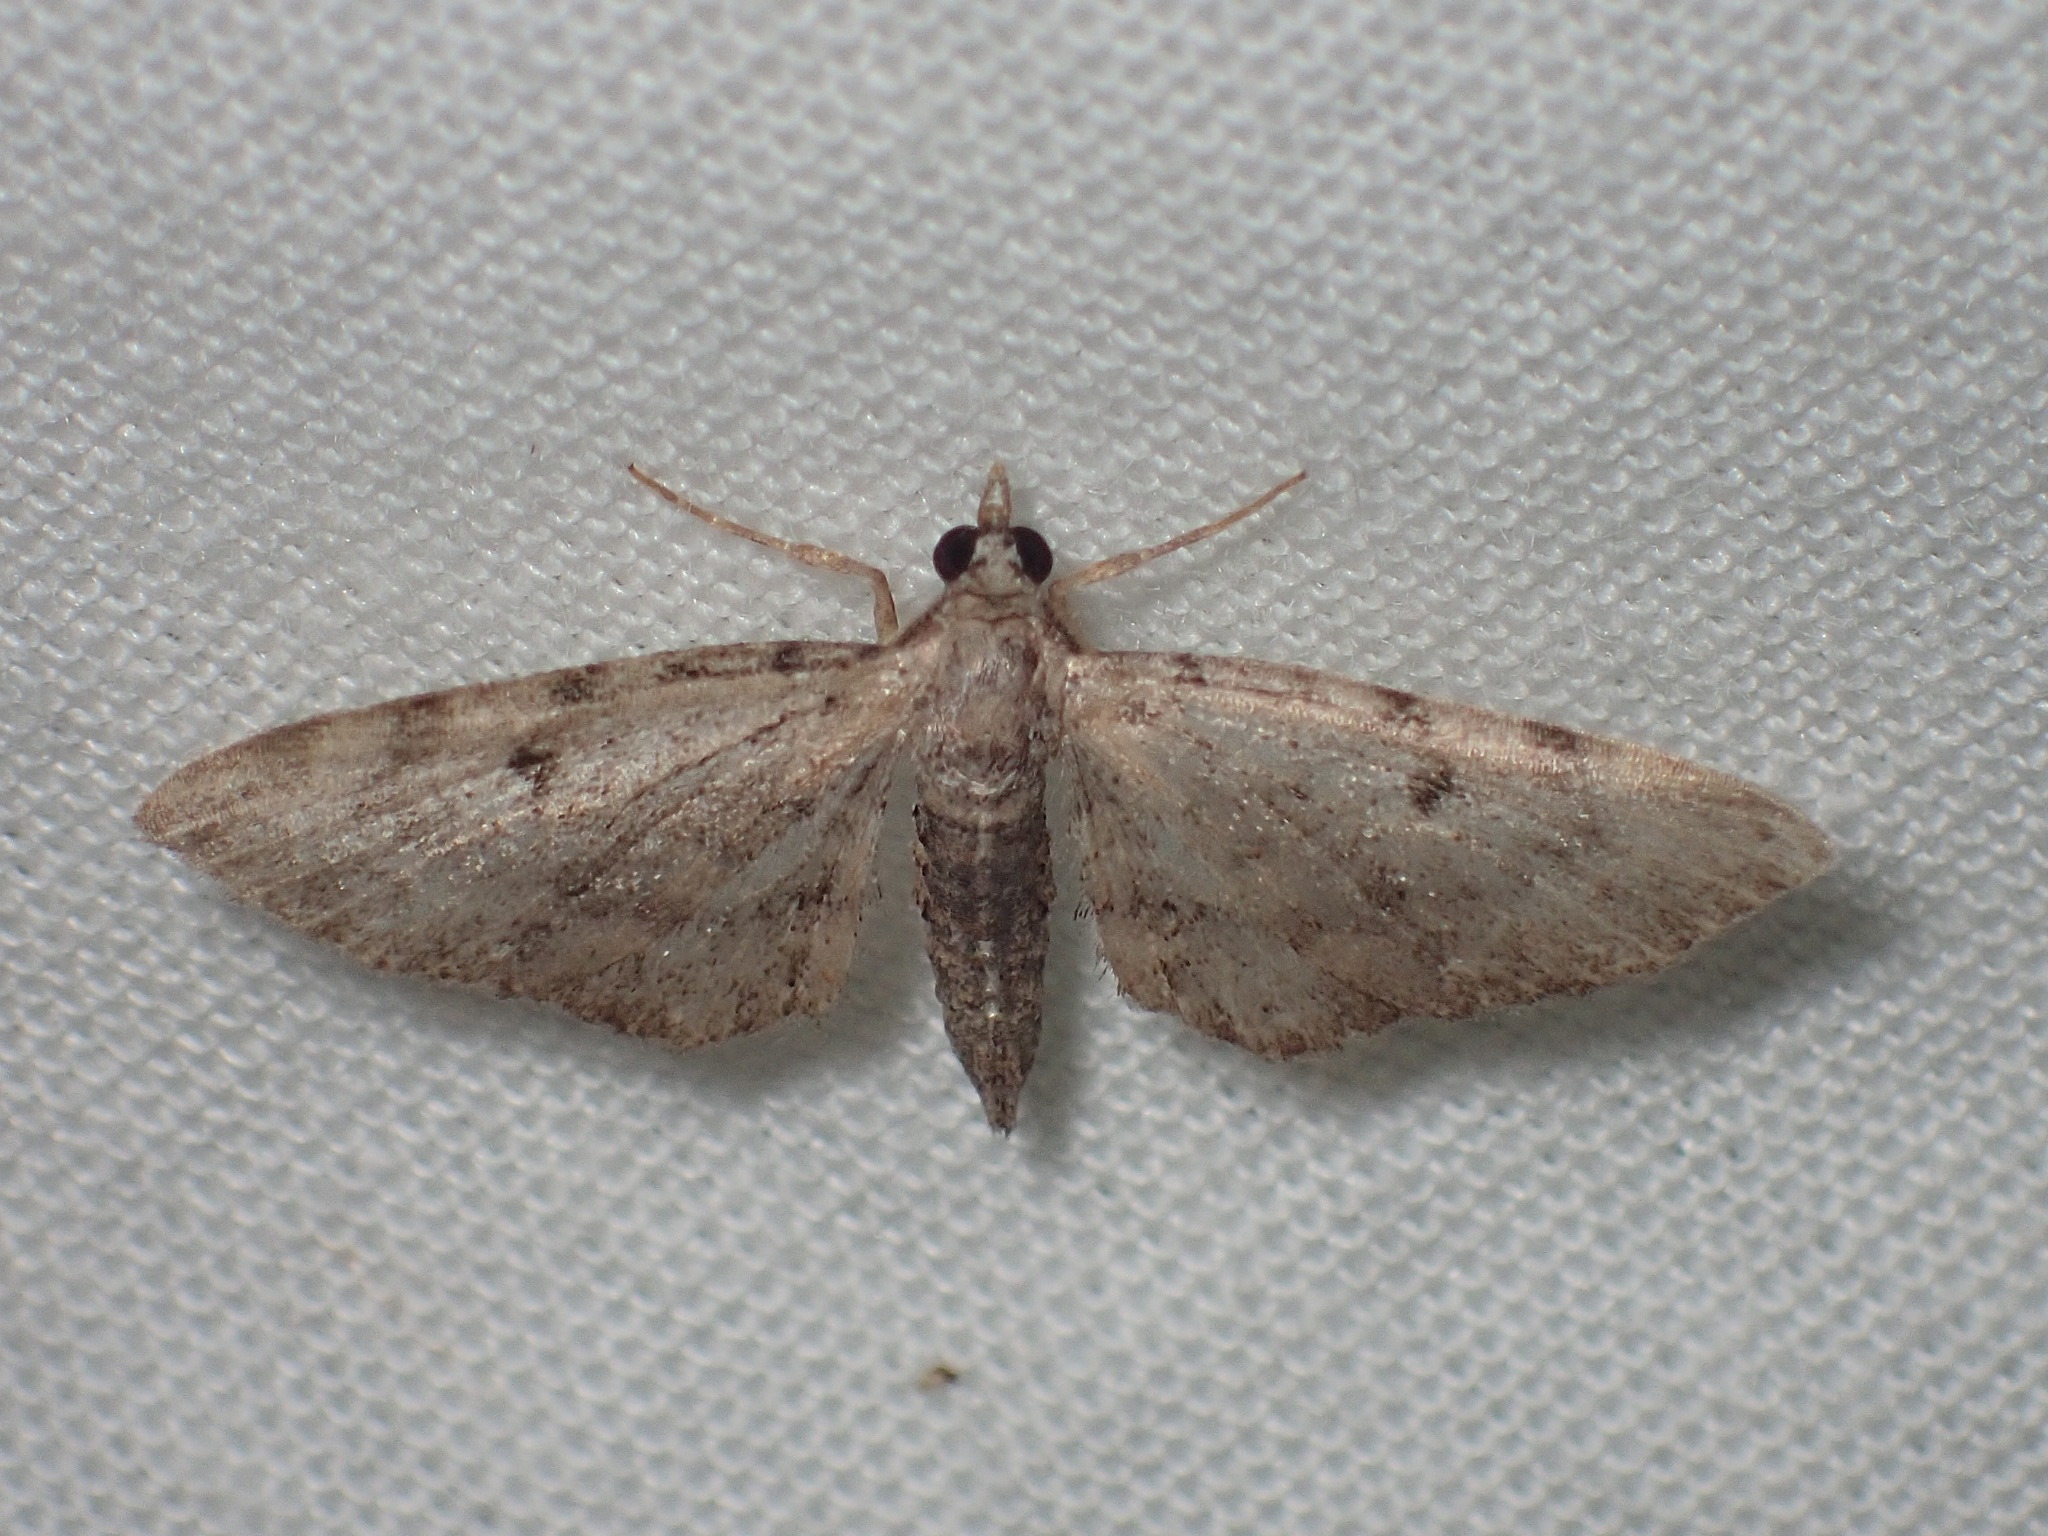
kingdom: Animalia
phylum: Arthropoda
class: Insecta
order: Lepidoptera
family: Geometridae
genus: Eupithecia
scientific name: Eupithecia miserulata
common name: Common eupithecia
